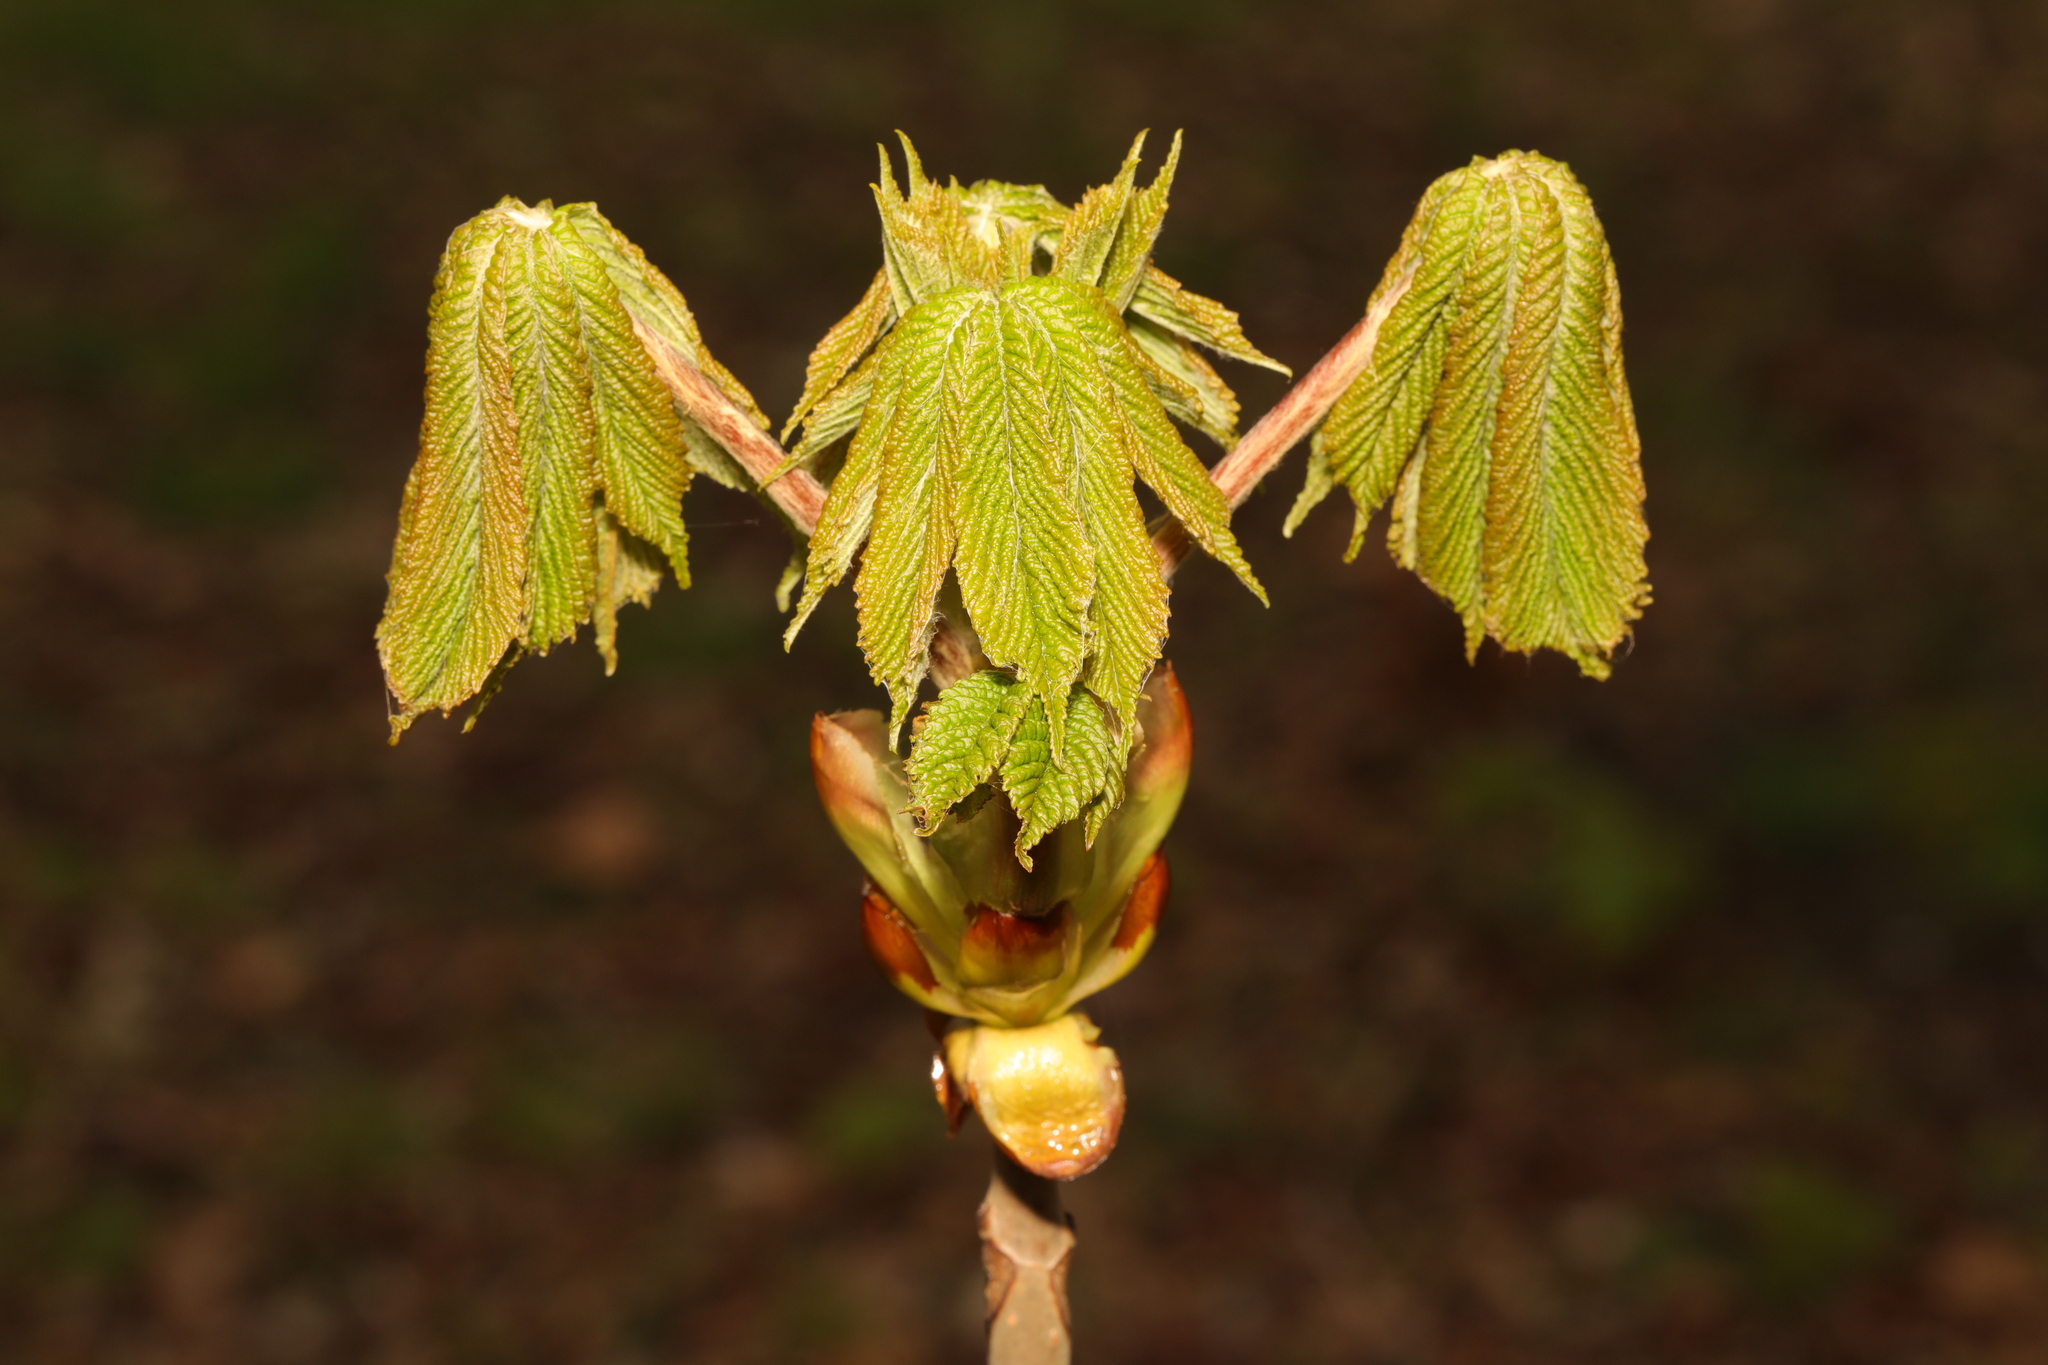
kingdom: Plantae
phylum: Tracheophyta
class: Magnoliopsida
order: Sapindales
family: Sapindaceae
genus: Aesculus
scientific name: Aesculus hippocastanum
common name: Horse-chestnut
